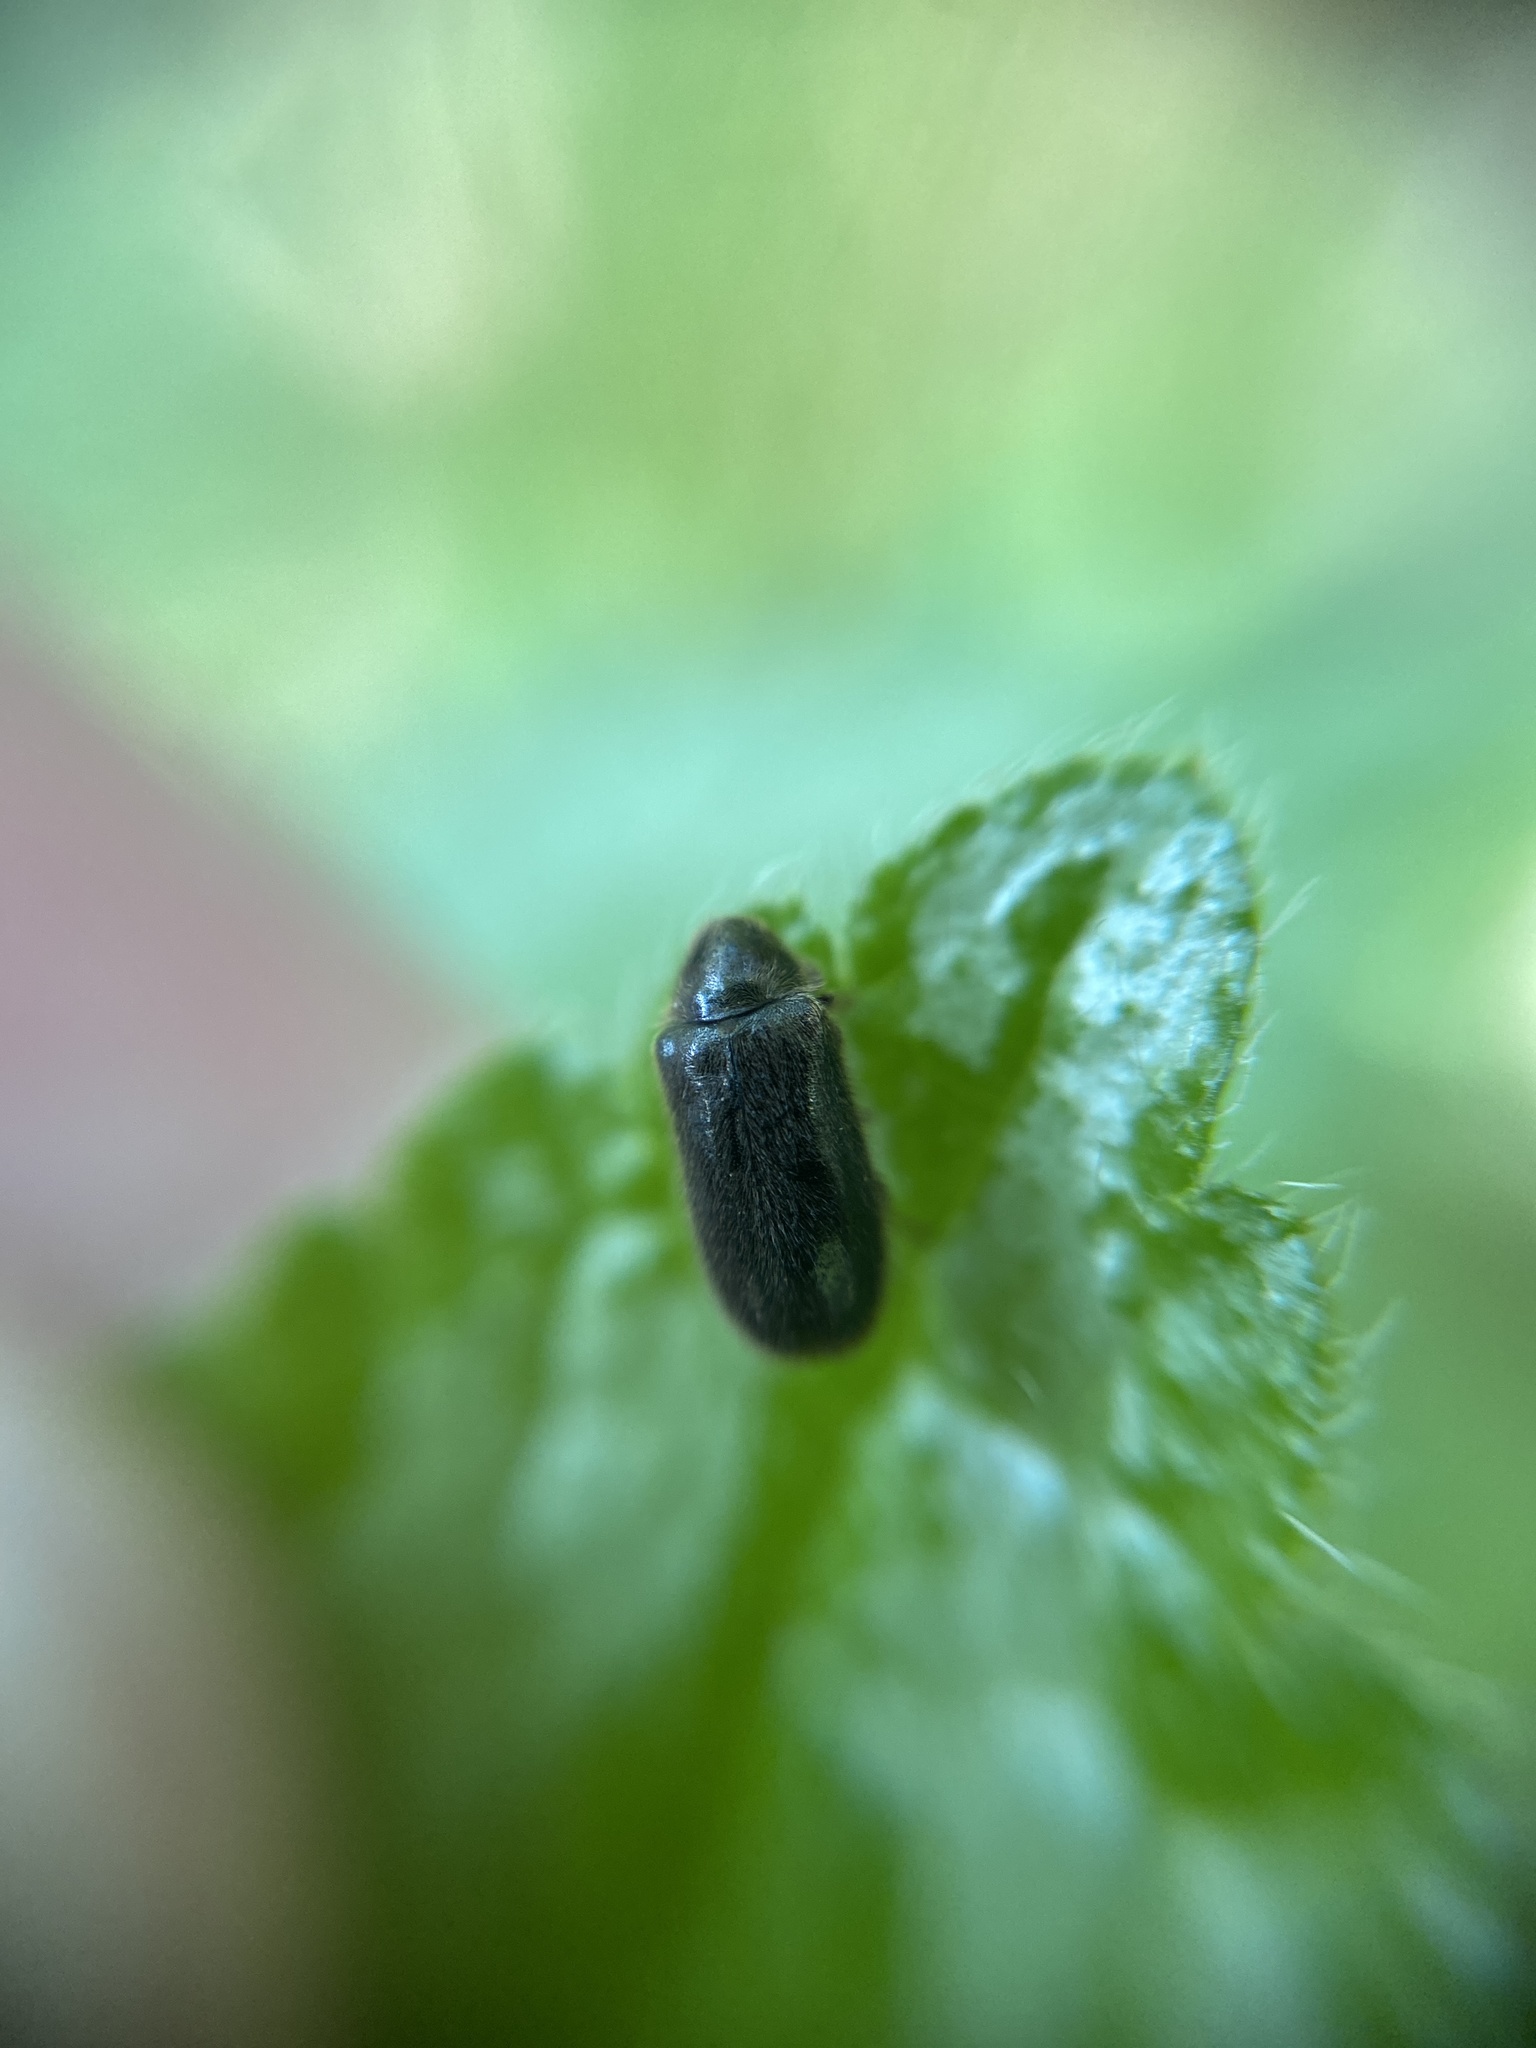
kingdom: Animalia
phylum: Arthropoda
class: Insecta
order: Coleoptera
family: Ptinidae
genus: Hyperisus
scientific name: Hyperisus plumbeus
